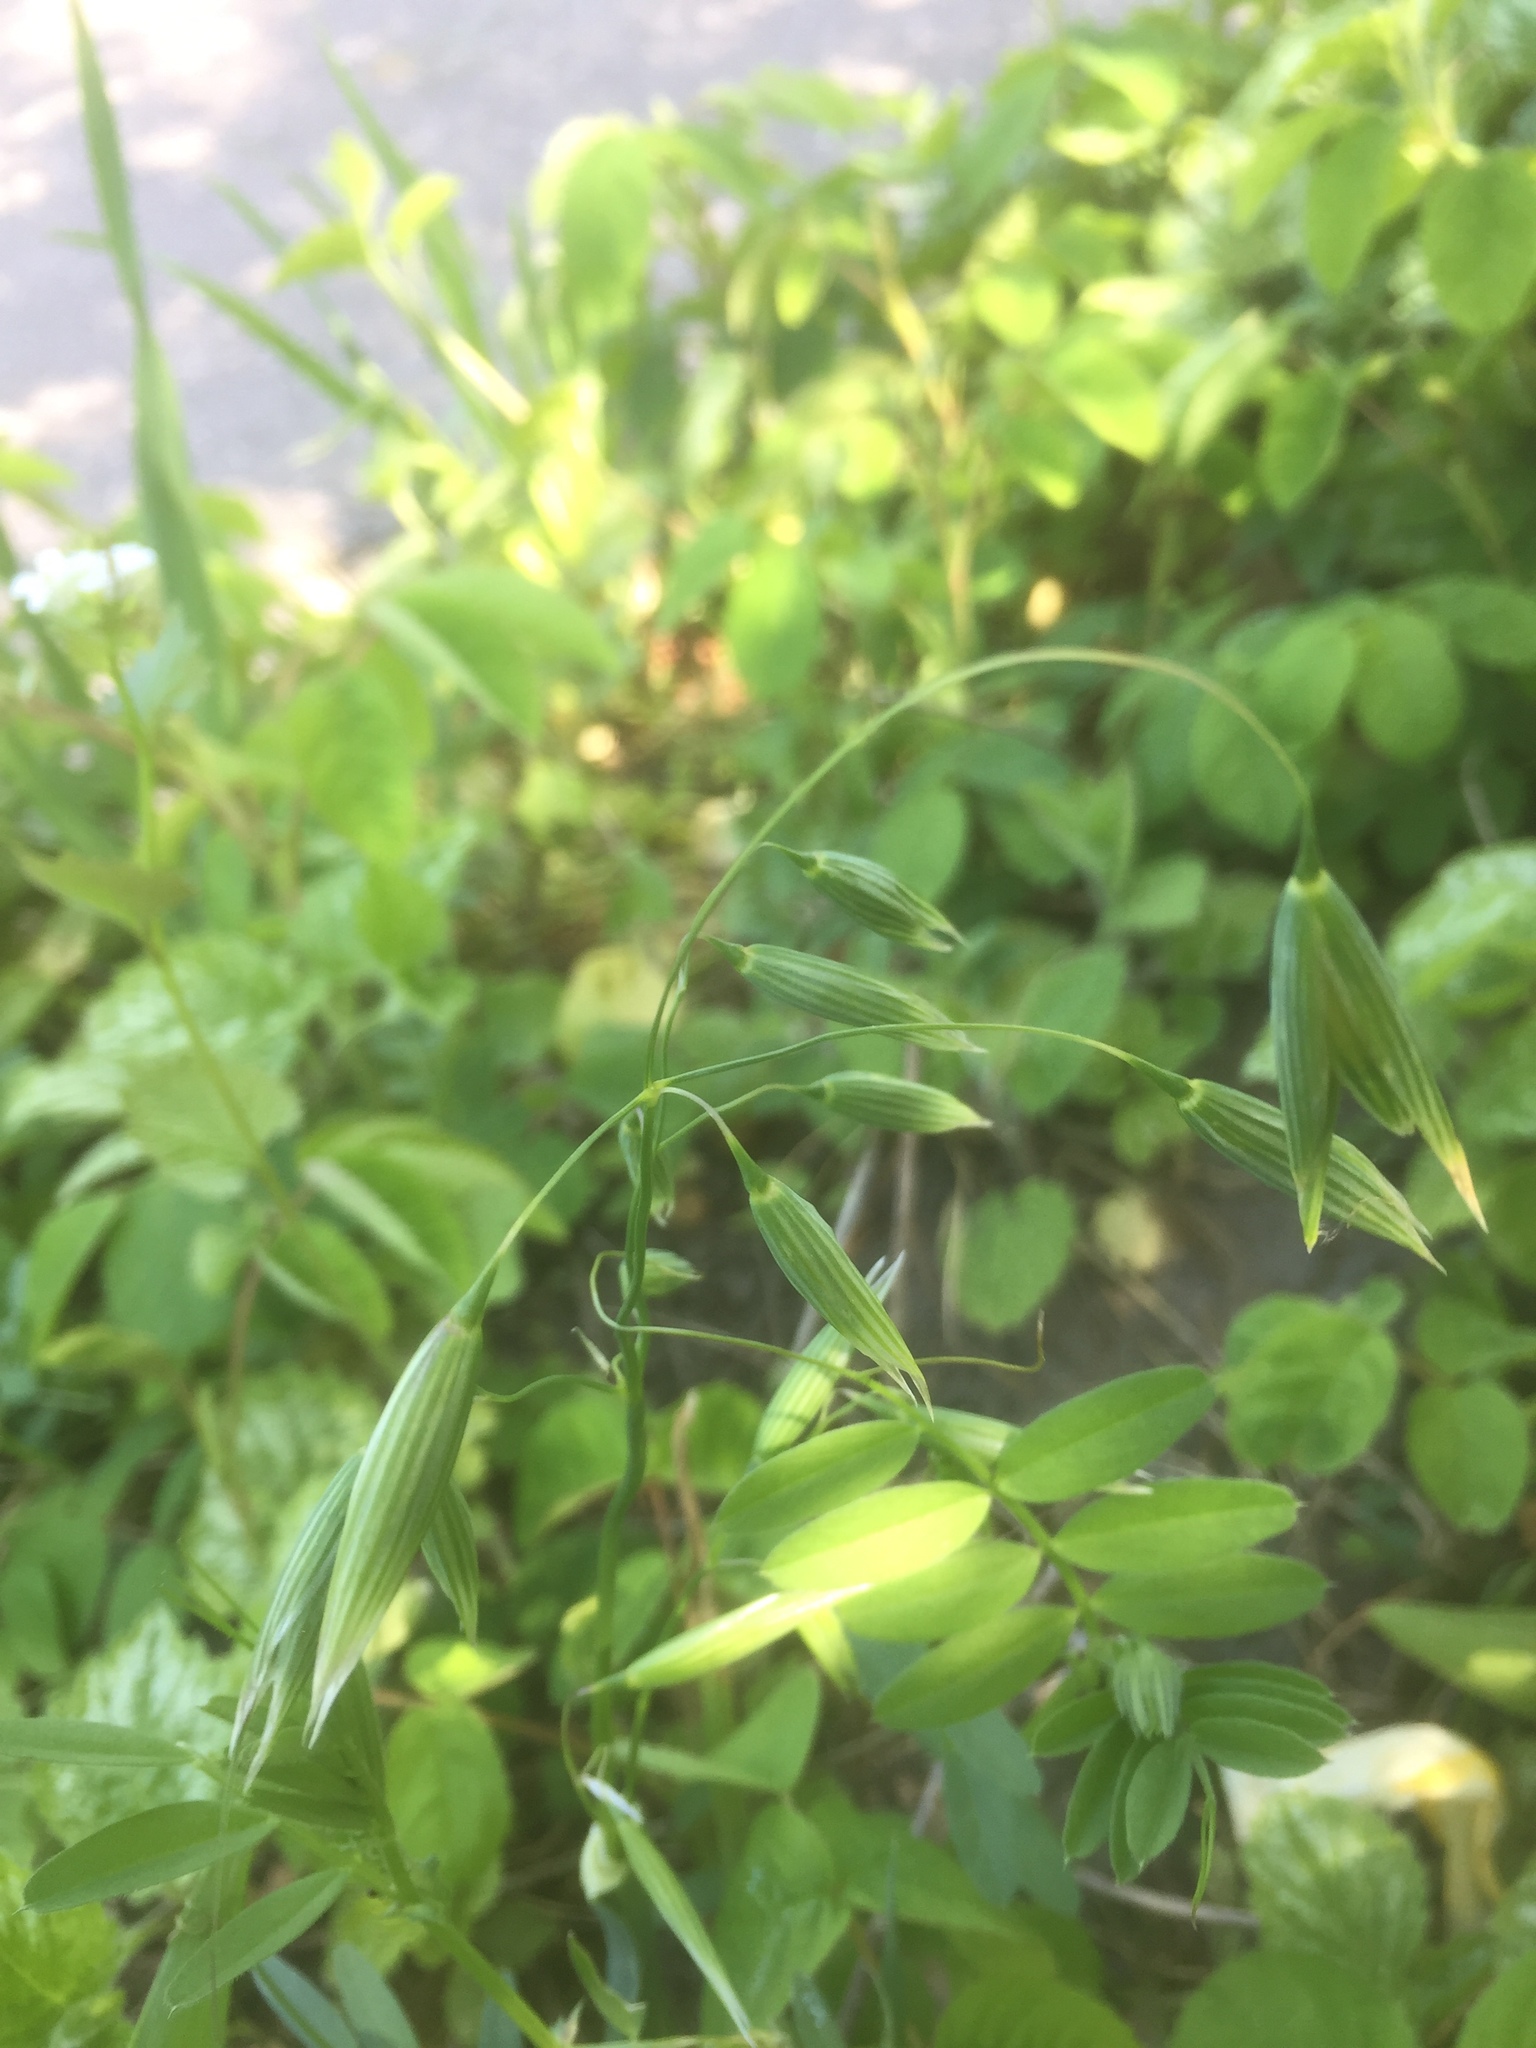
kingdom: Plantae
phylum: Tracheophyta
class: Liliopsida
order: Poales
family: Poaceae
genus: Avena
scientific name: Avena sativa
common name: Oat
